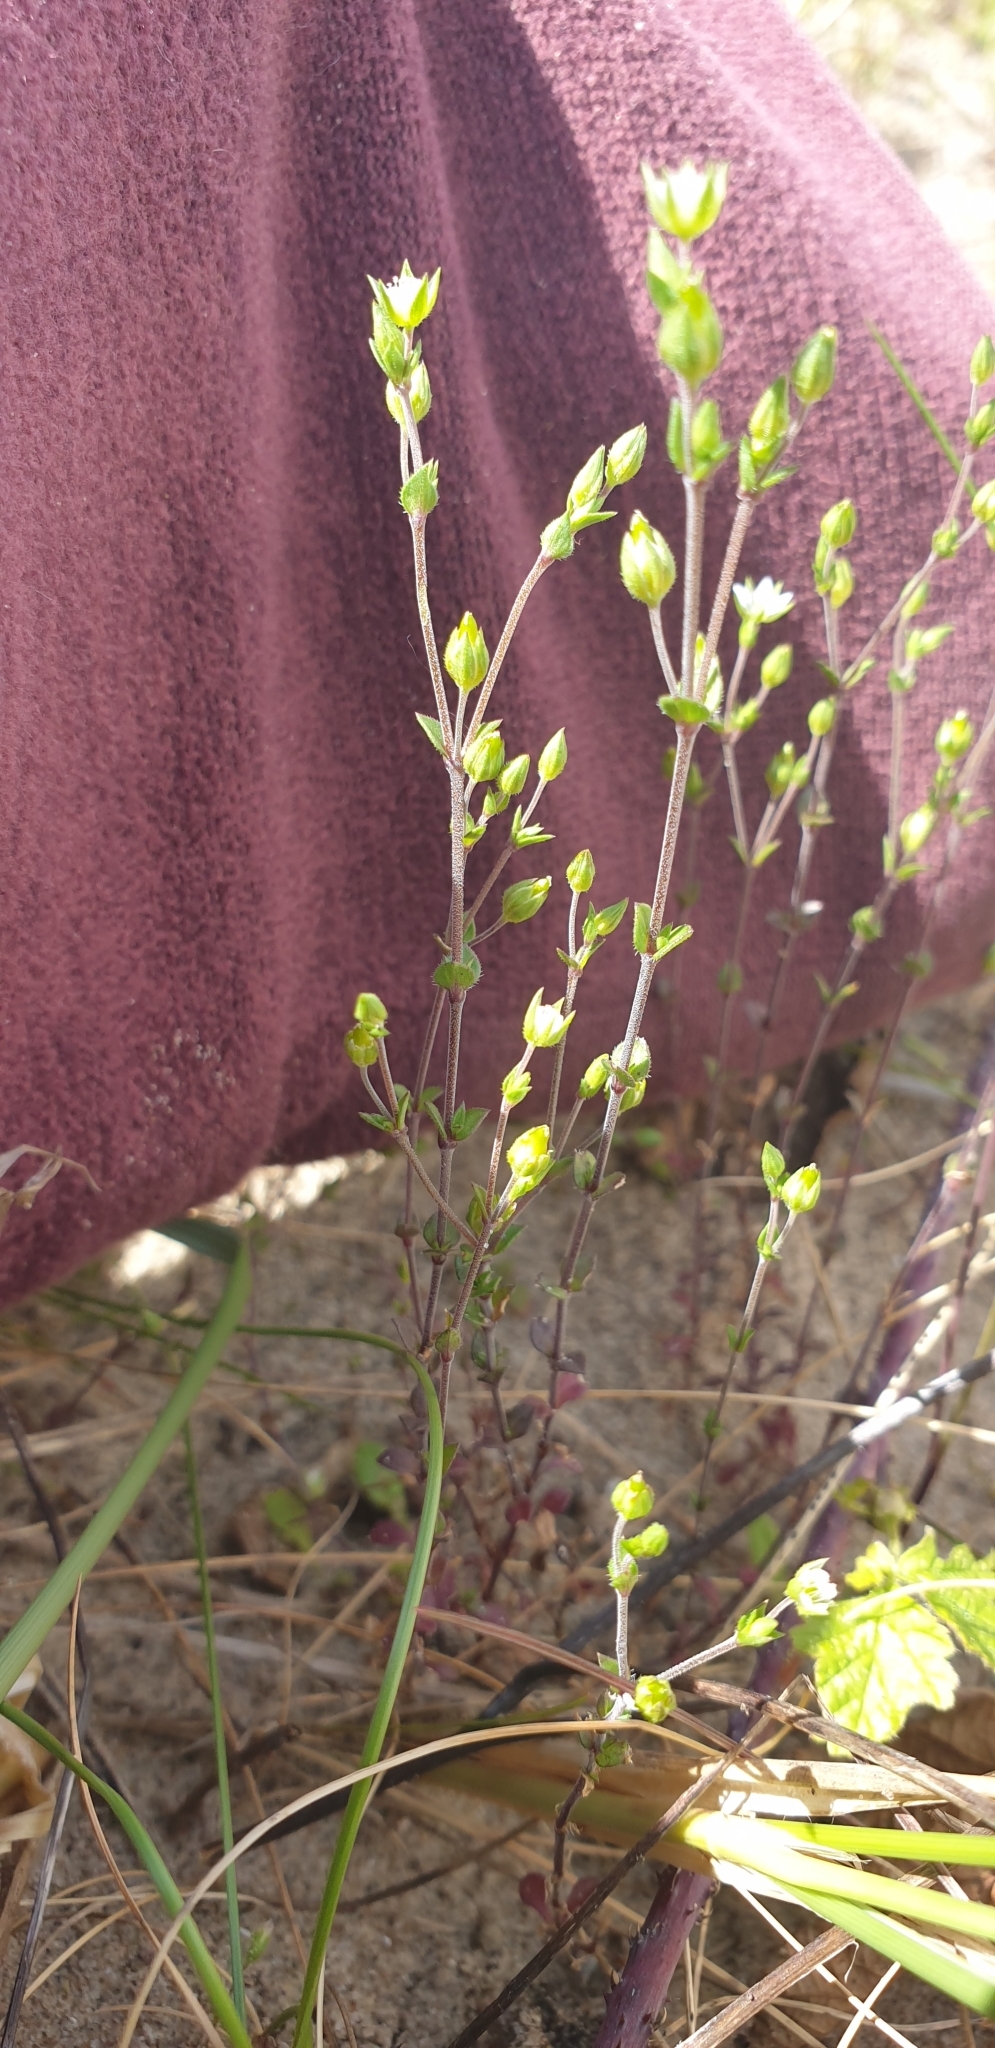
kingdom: Plantae
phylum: Tracheophyta
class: Magnoliopsida
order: Caryophyllales
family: Caryophyllaceae
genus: Arenaria
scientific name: Arenaria serpyllifolia
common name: Thyme-leaved sandwort
